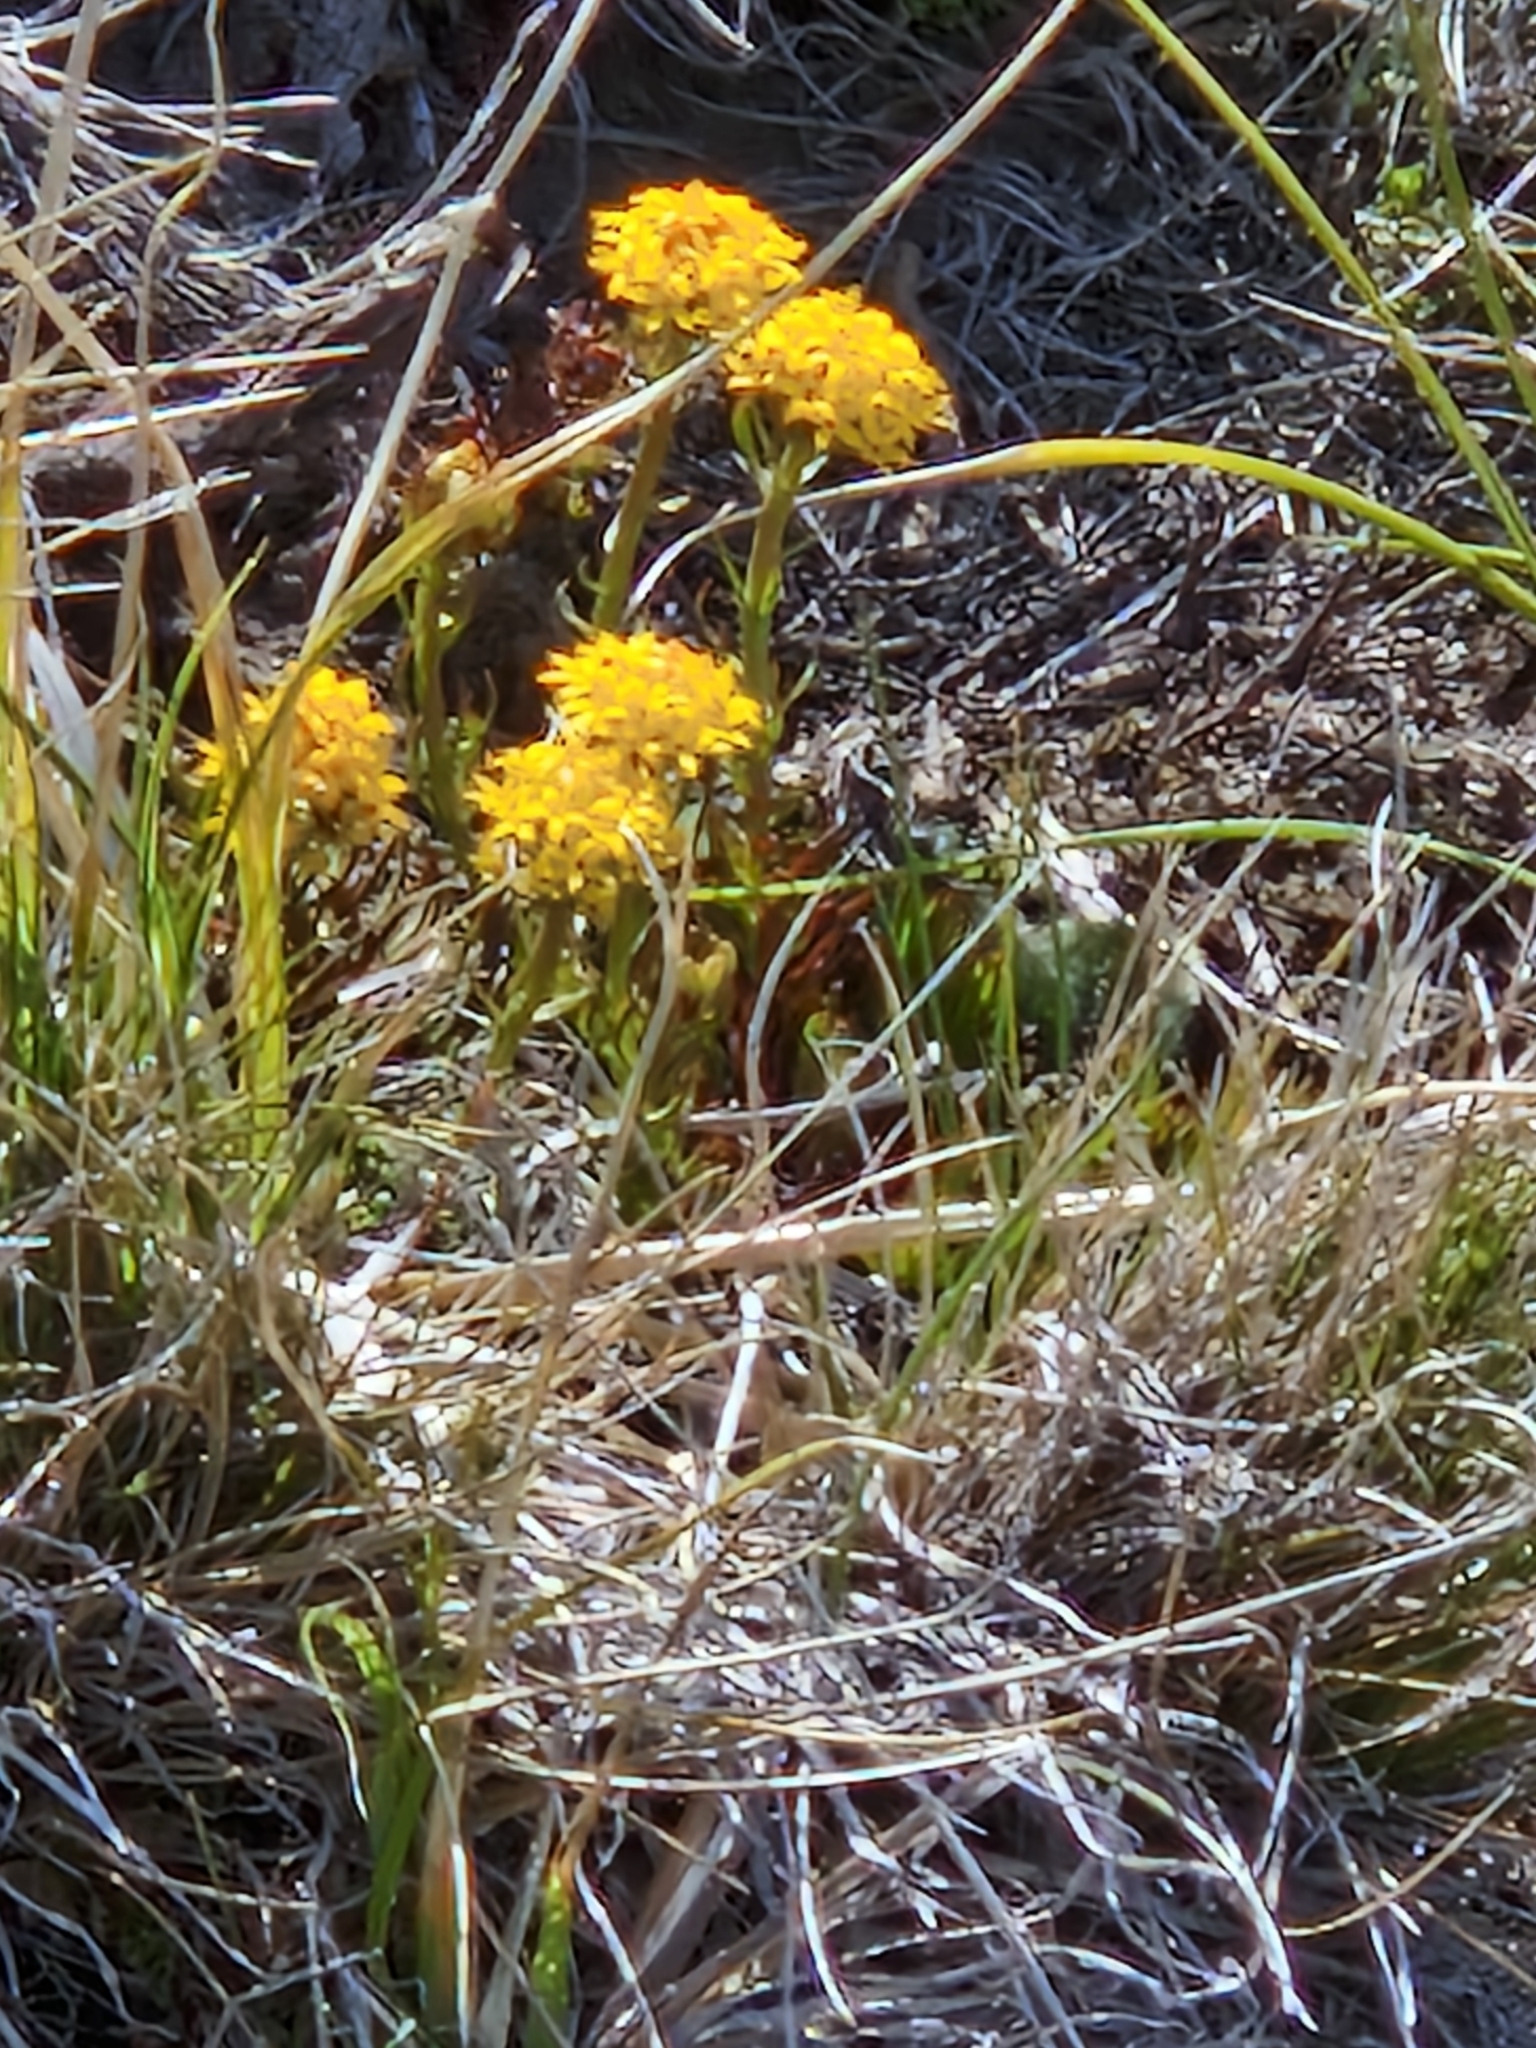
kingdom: Plantae
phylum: Tracheophyta
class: Magnoliopsida
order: Santalales
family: Schoepfiaceae
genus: Quinchamalium
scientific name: Quinchamalium chilense
